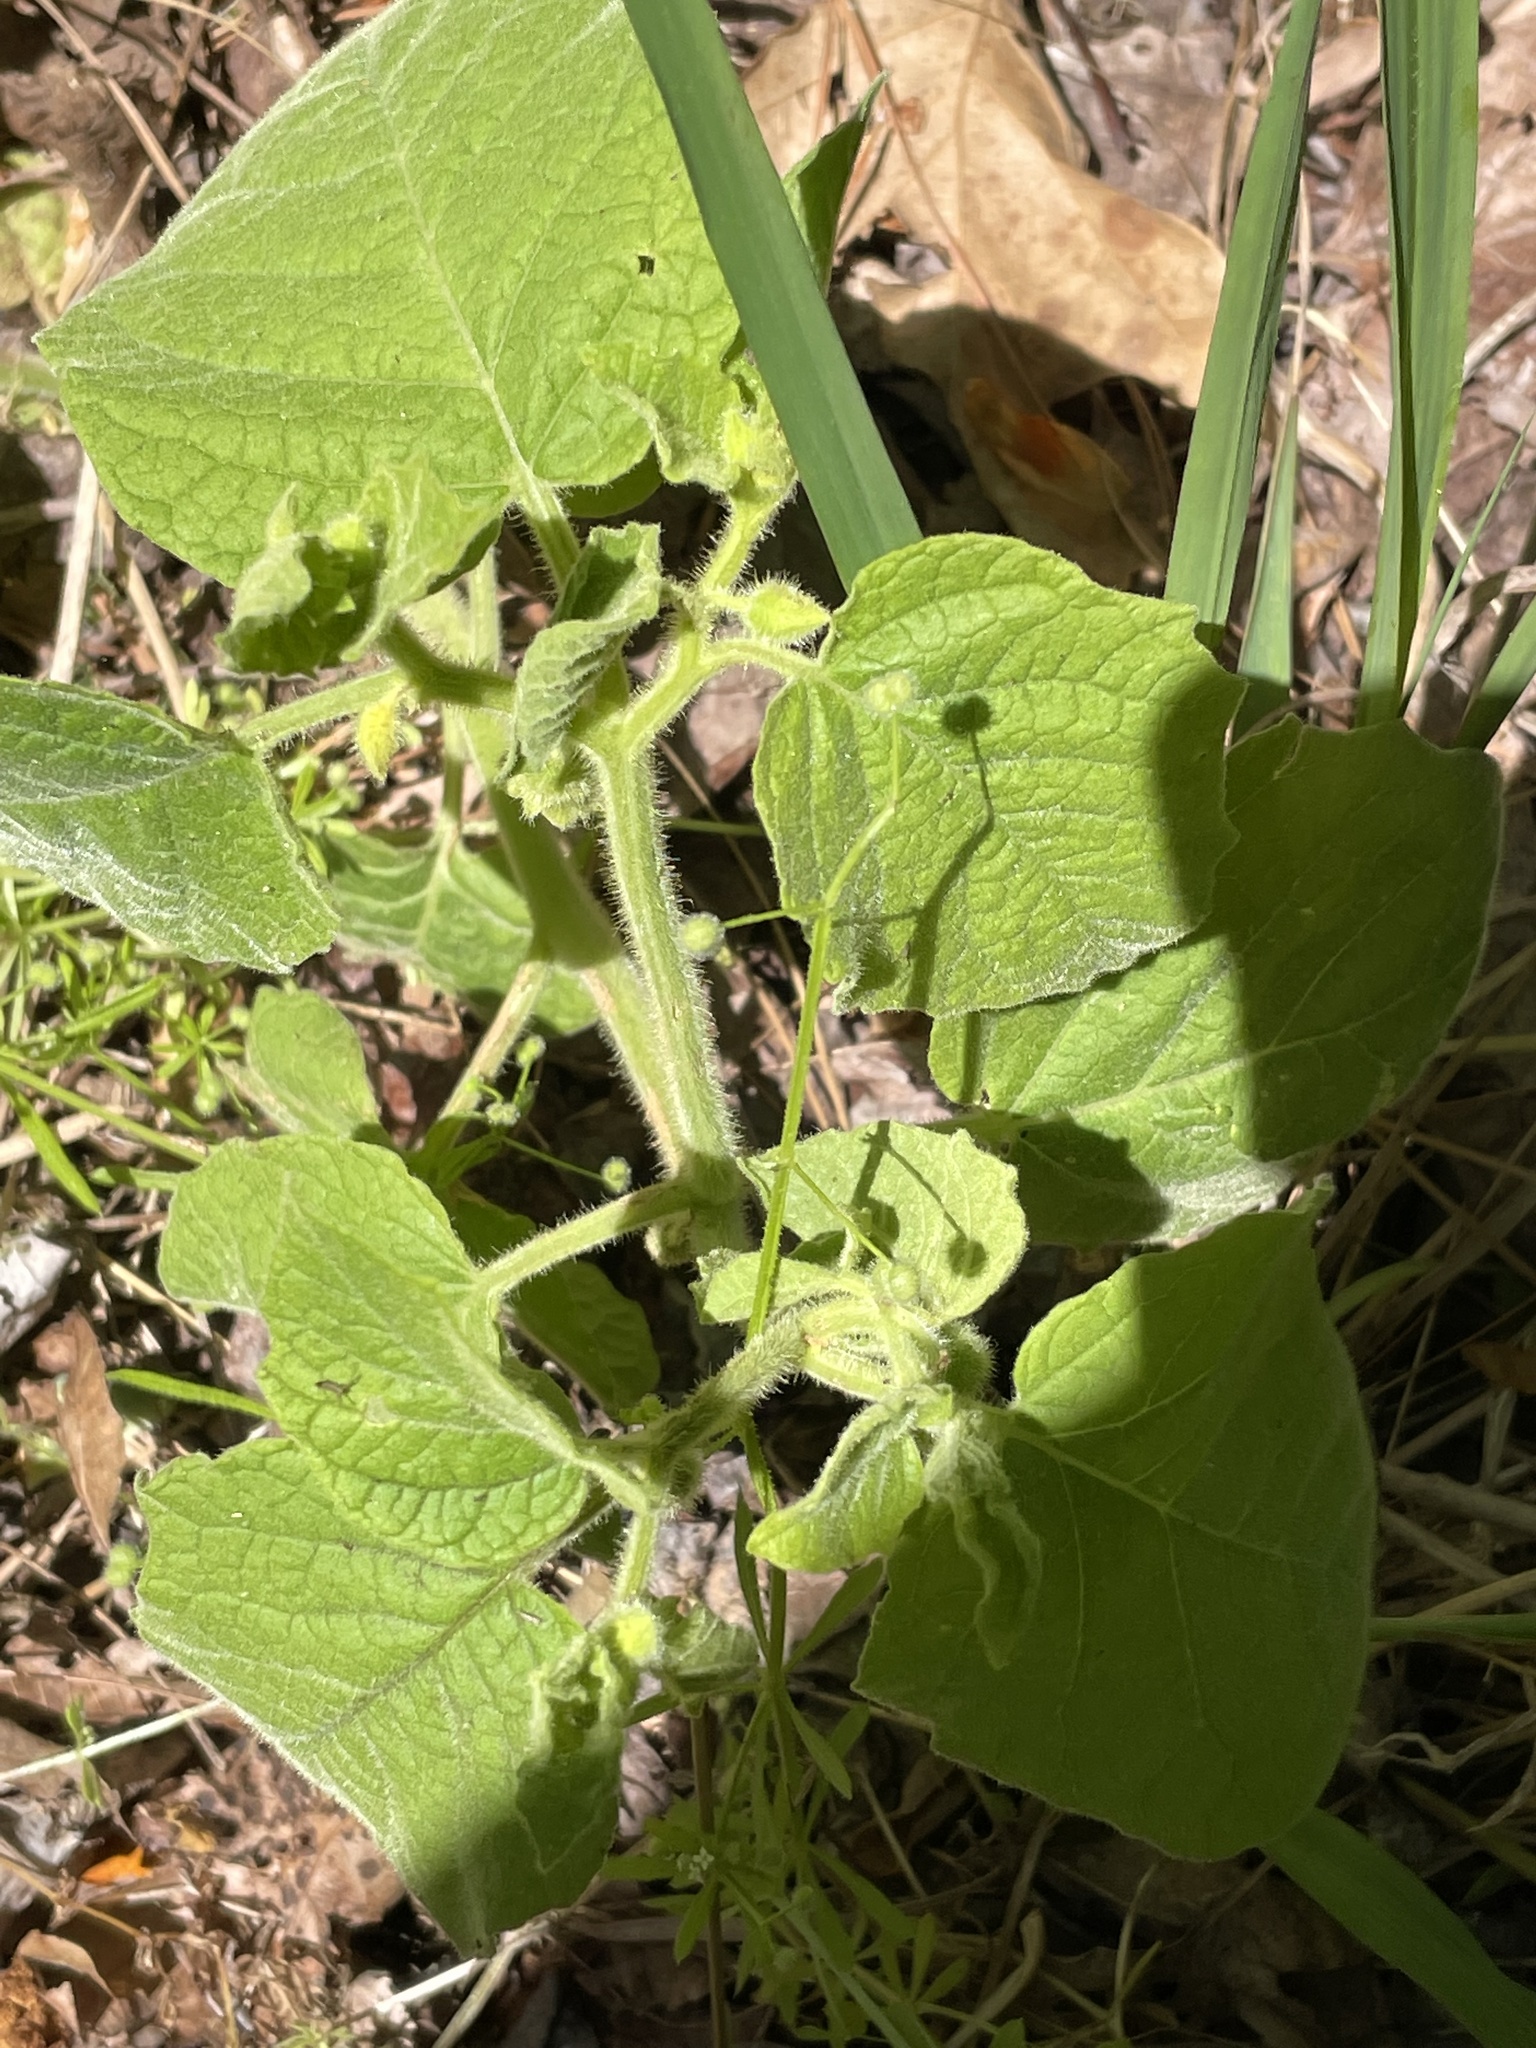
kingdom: Plantae
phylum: Tracheophyta
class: Magnoliopsida
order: Solanales
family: Solanaceae
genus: Physalis
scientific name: Physalis heterophylla
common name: Clammy ground-cherry
